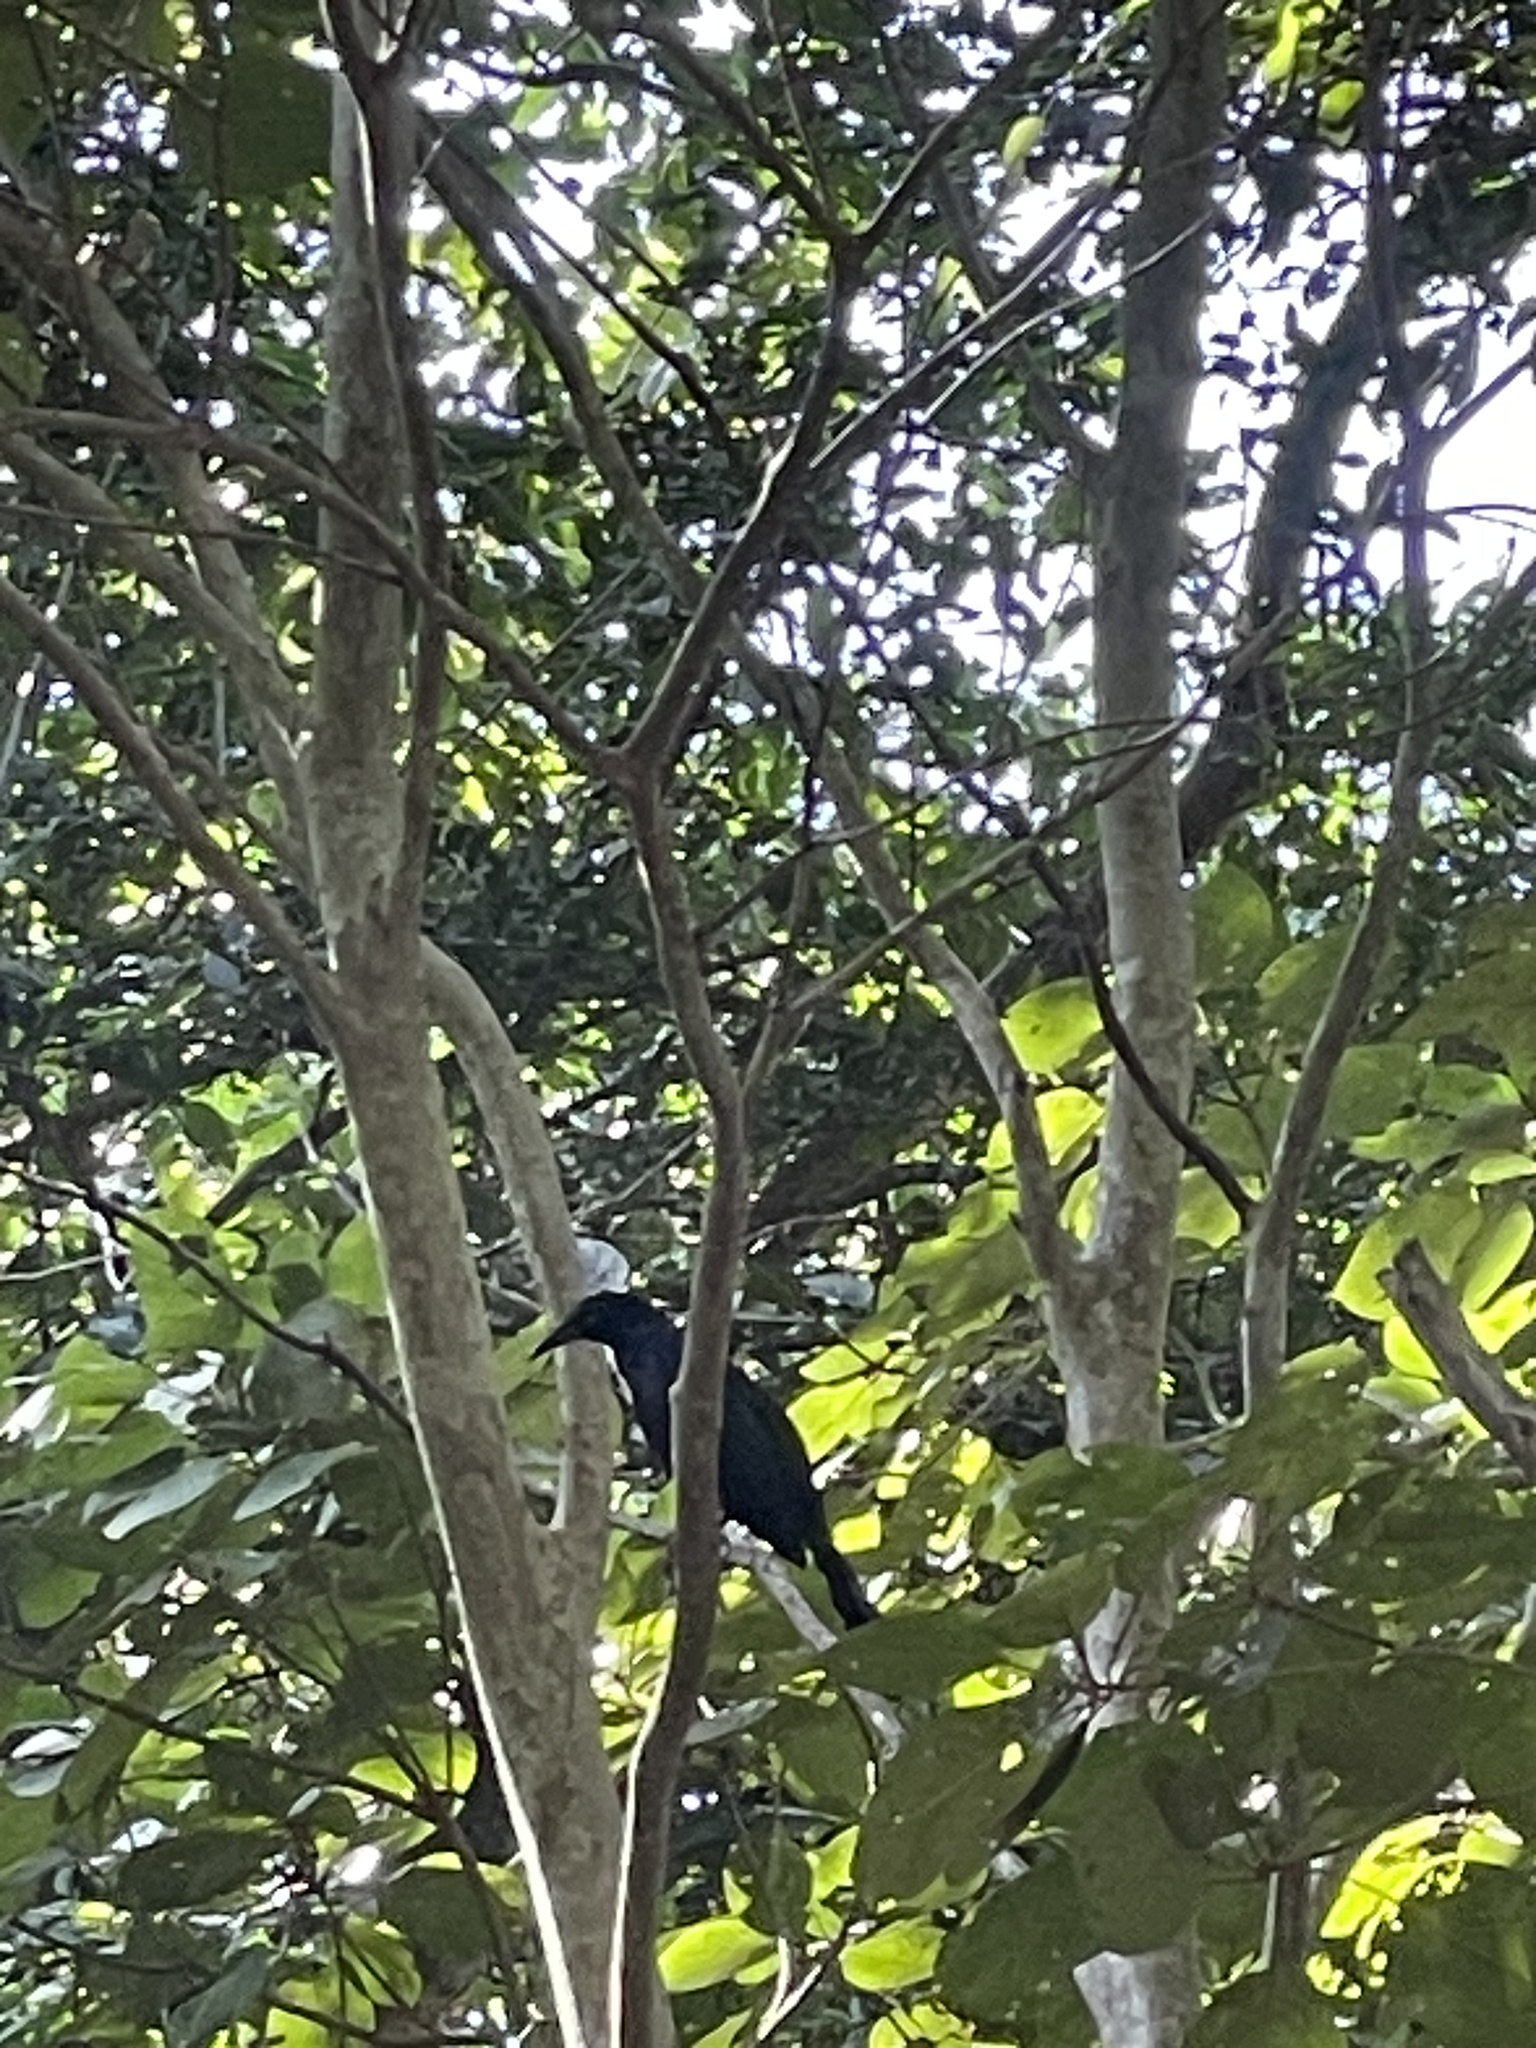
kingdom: Animalia
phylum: Chordata
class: Aves
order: Passeriformes
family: Icteridae
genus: Quiscalus
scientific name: Quiscalus mexicanus
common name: Great-tailed grackle
